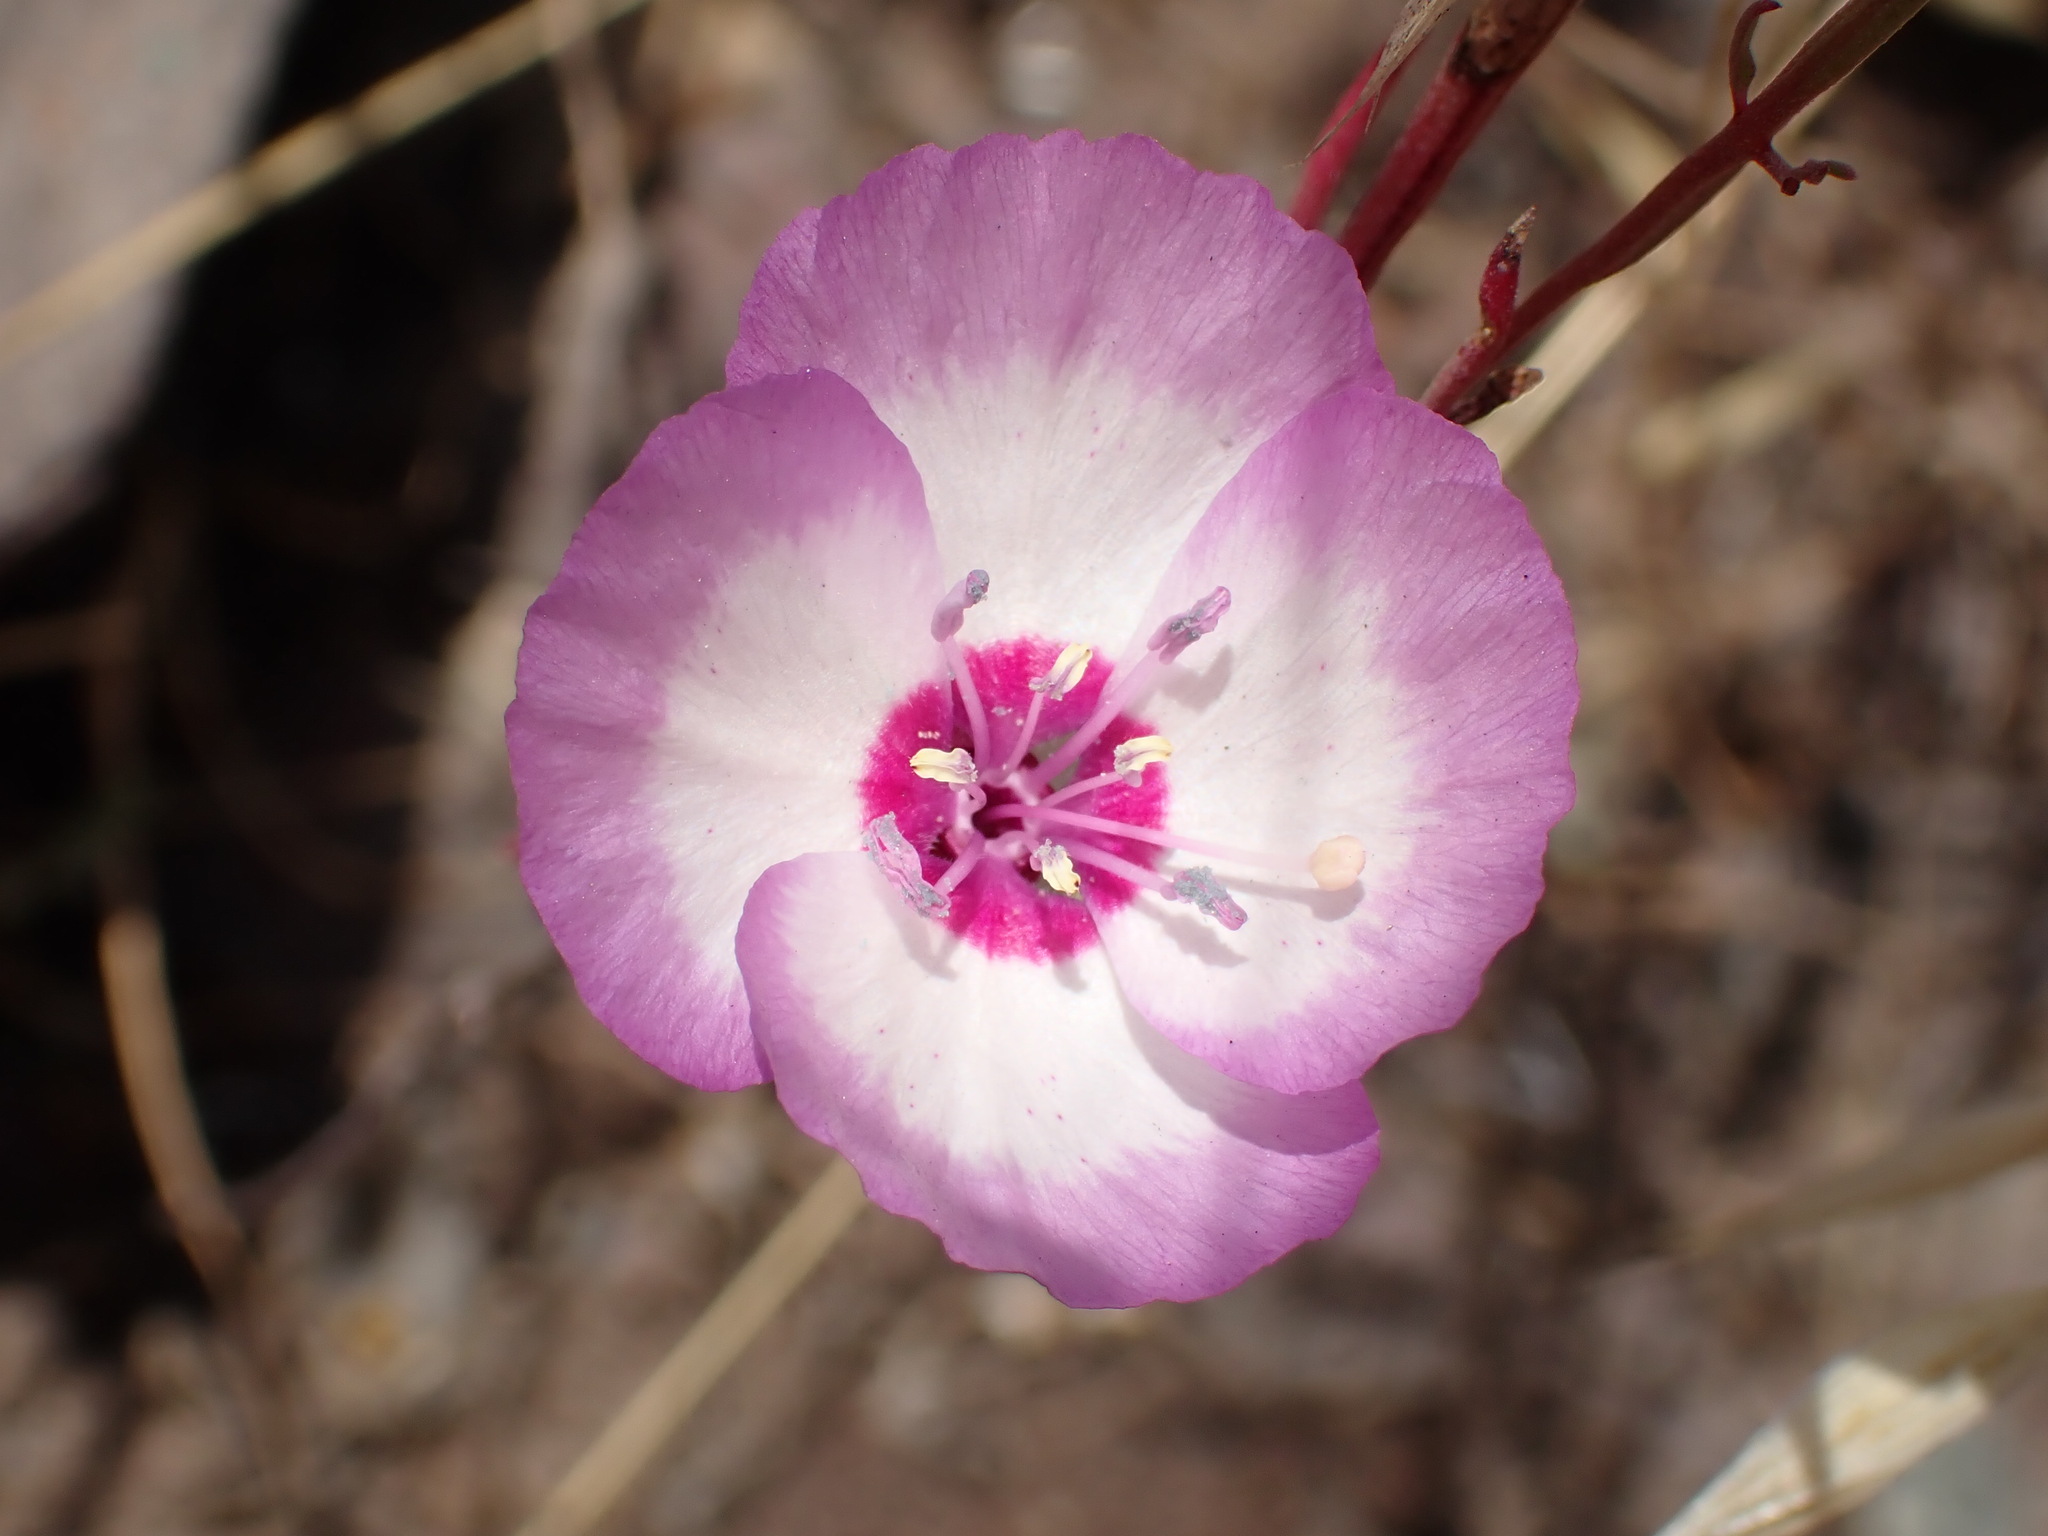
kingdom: Plantae
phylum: Tracheophyta
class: Magnoliopsida
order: Myrtales
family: Onagraceae
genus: Clarkia
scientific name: Clarkia cylindrica
